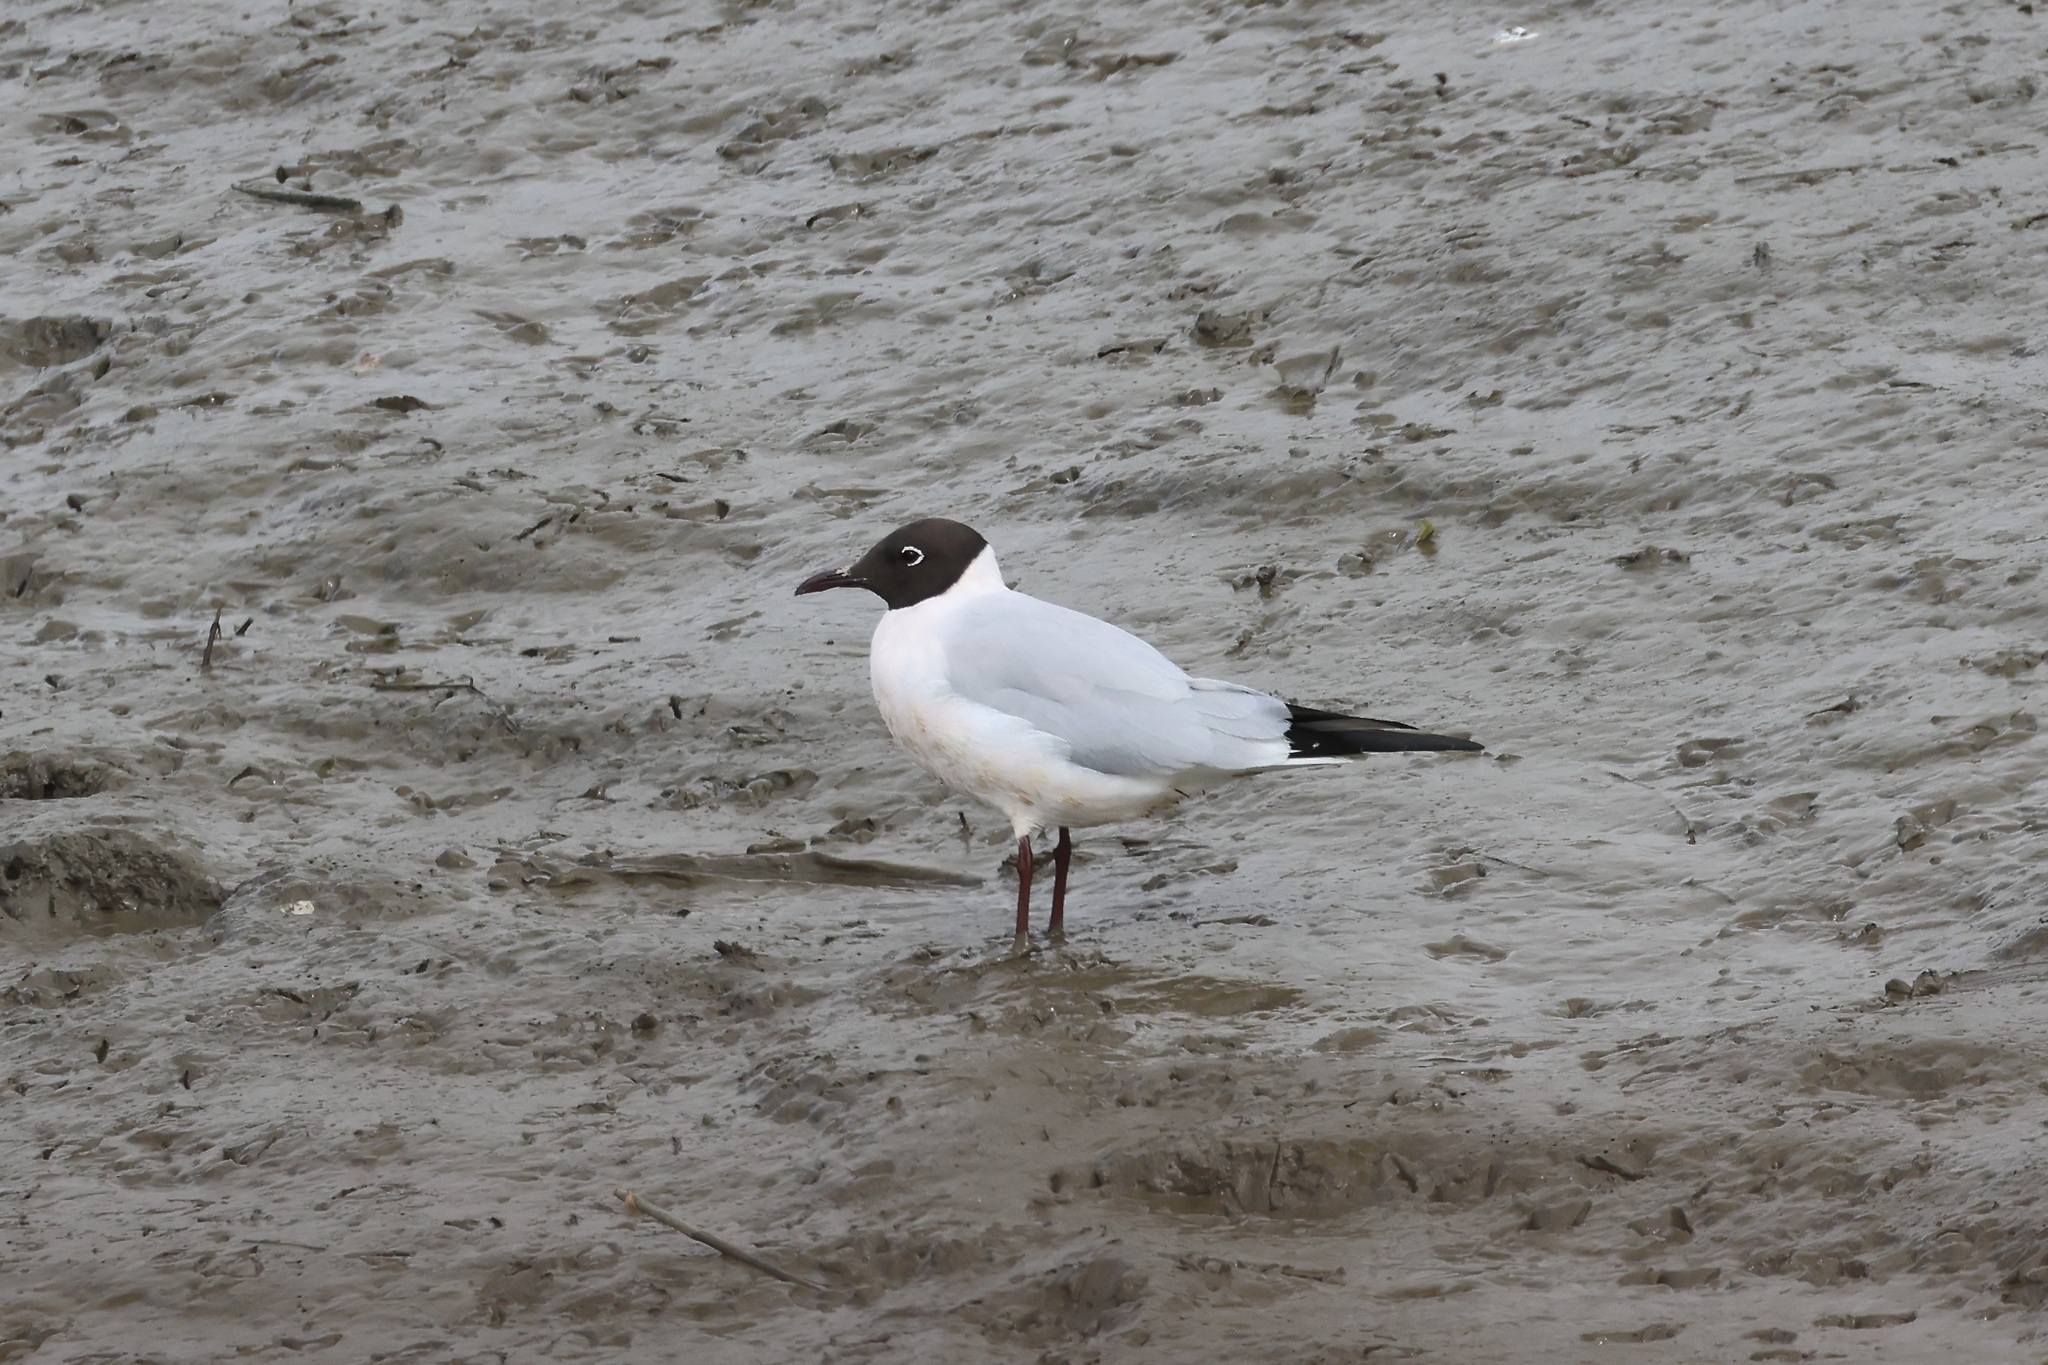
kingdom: Animalia
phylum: Chordata
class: Aves
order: Charadriiformes
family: Laridae
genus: Chroicocephalus
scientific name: Chroicocephalus ridibundus
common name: Black-headed gull
